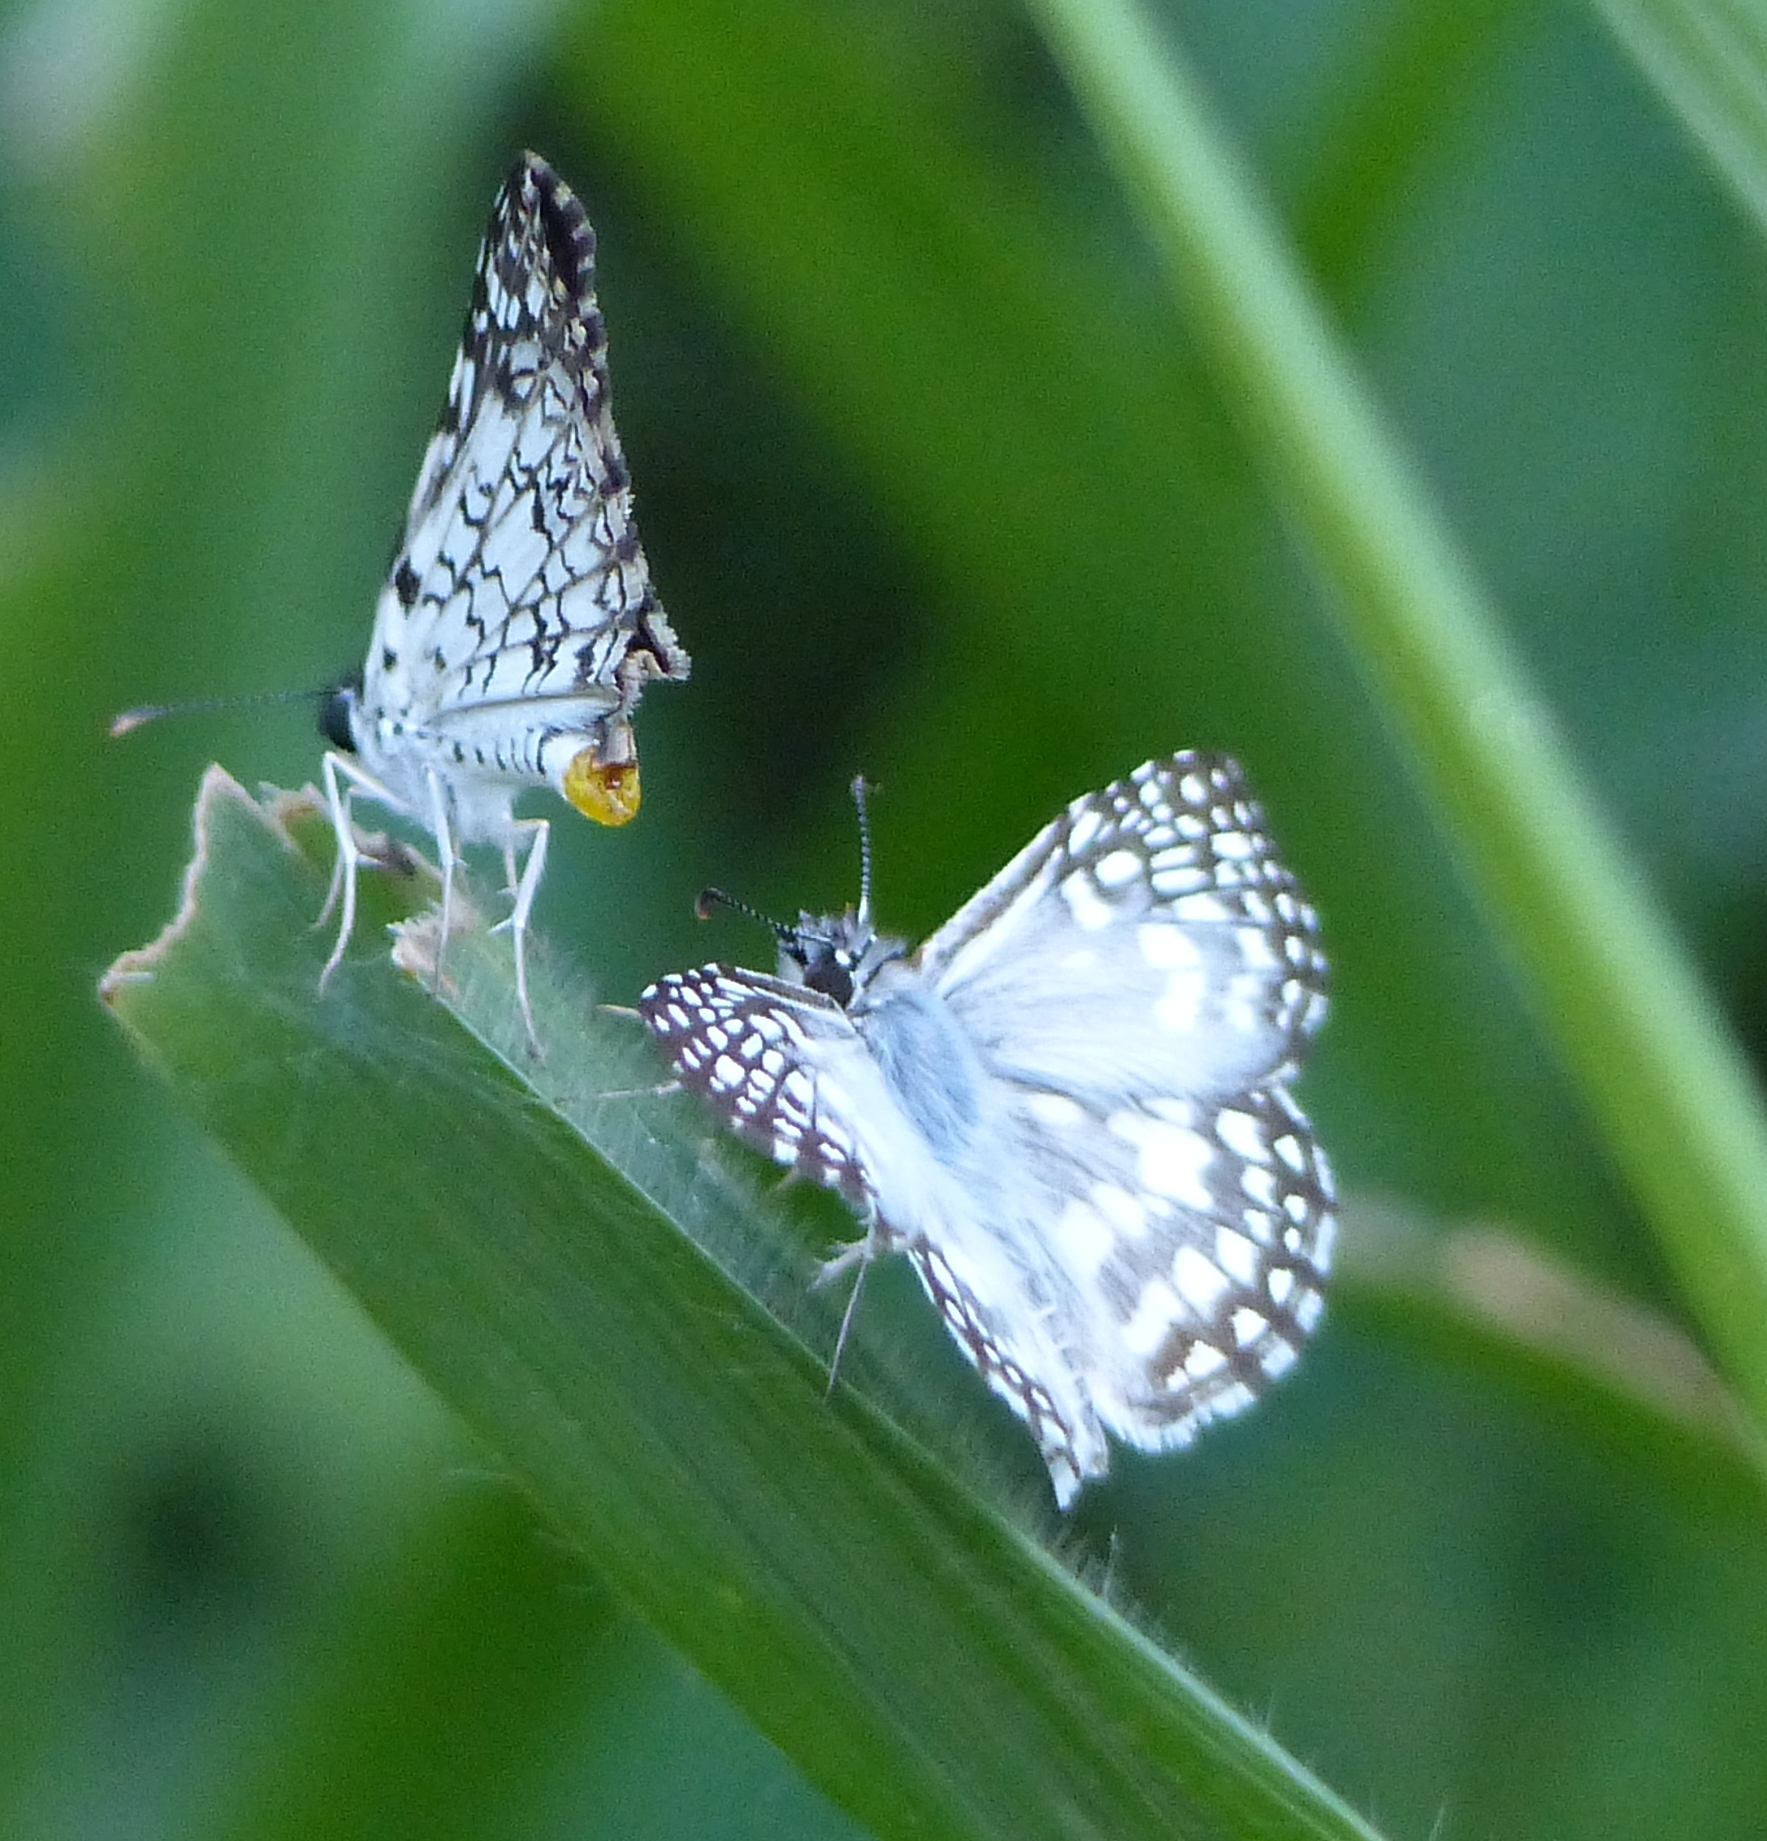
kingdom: Animalia
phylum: Arthropoda
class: Insecta
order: Lepidoptera
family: Hesperiidae
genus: Pyrgus
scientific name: Pyrgus oileus
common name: Tropical checkered-skipper
